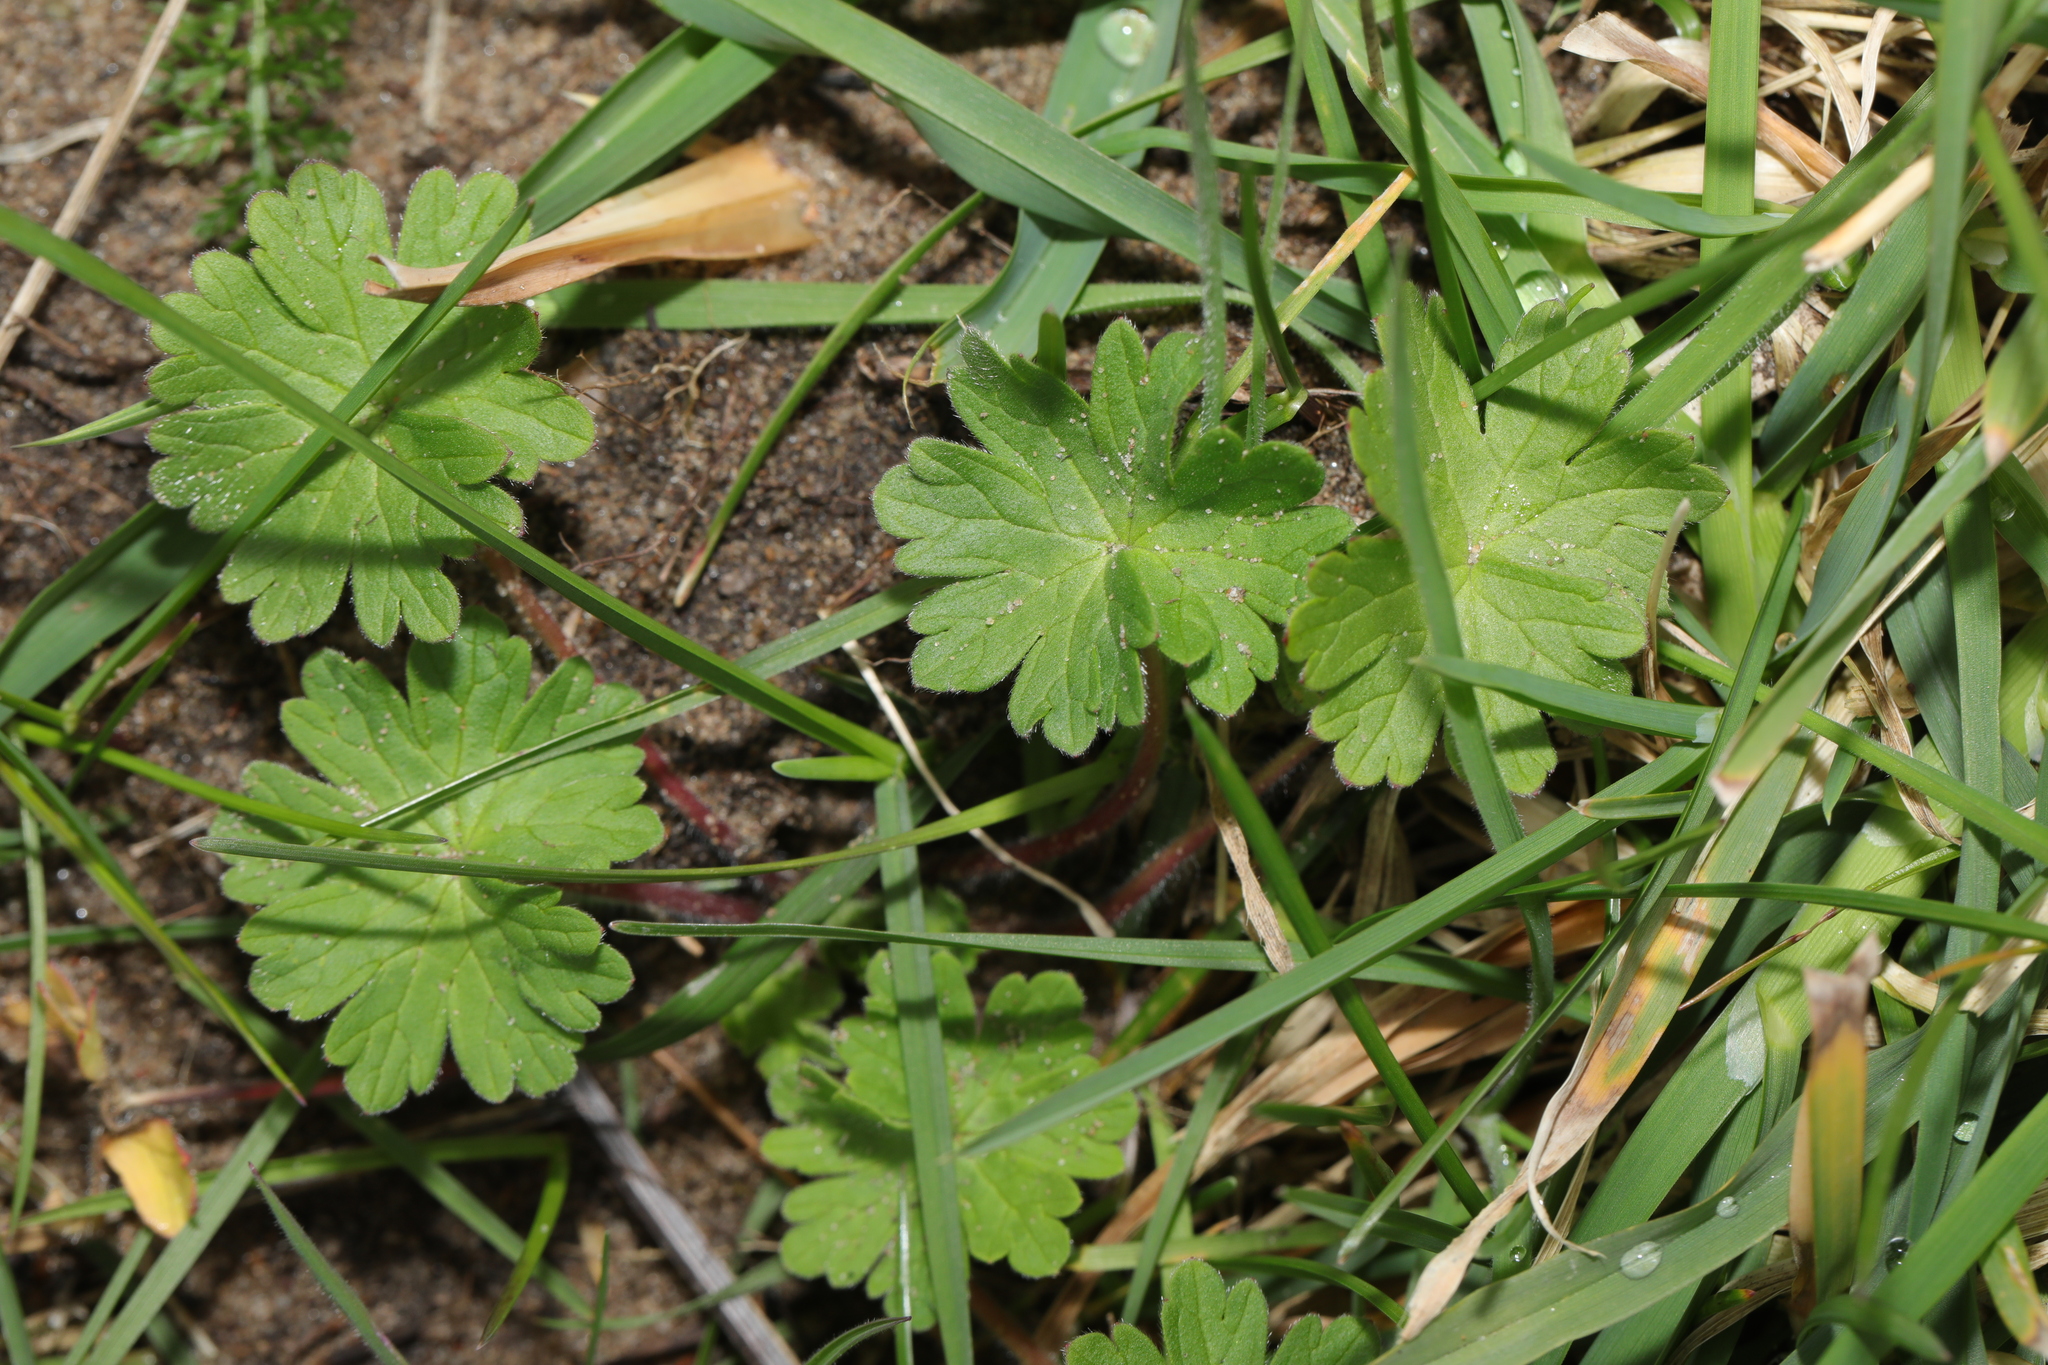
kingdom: Plantae
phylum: Tracheophyta
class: Magnoliopsida
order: Geraniales
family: Geraniaceae
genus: Geranium
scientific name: Geranium molle
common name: Dove's-foot crane's-bill
